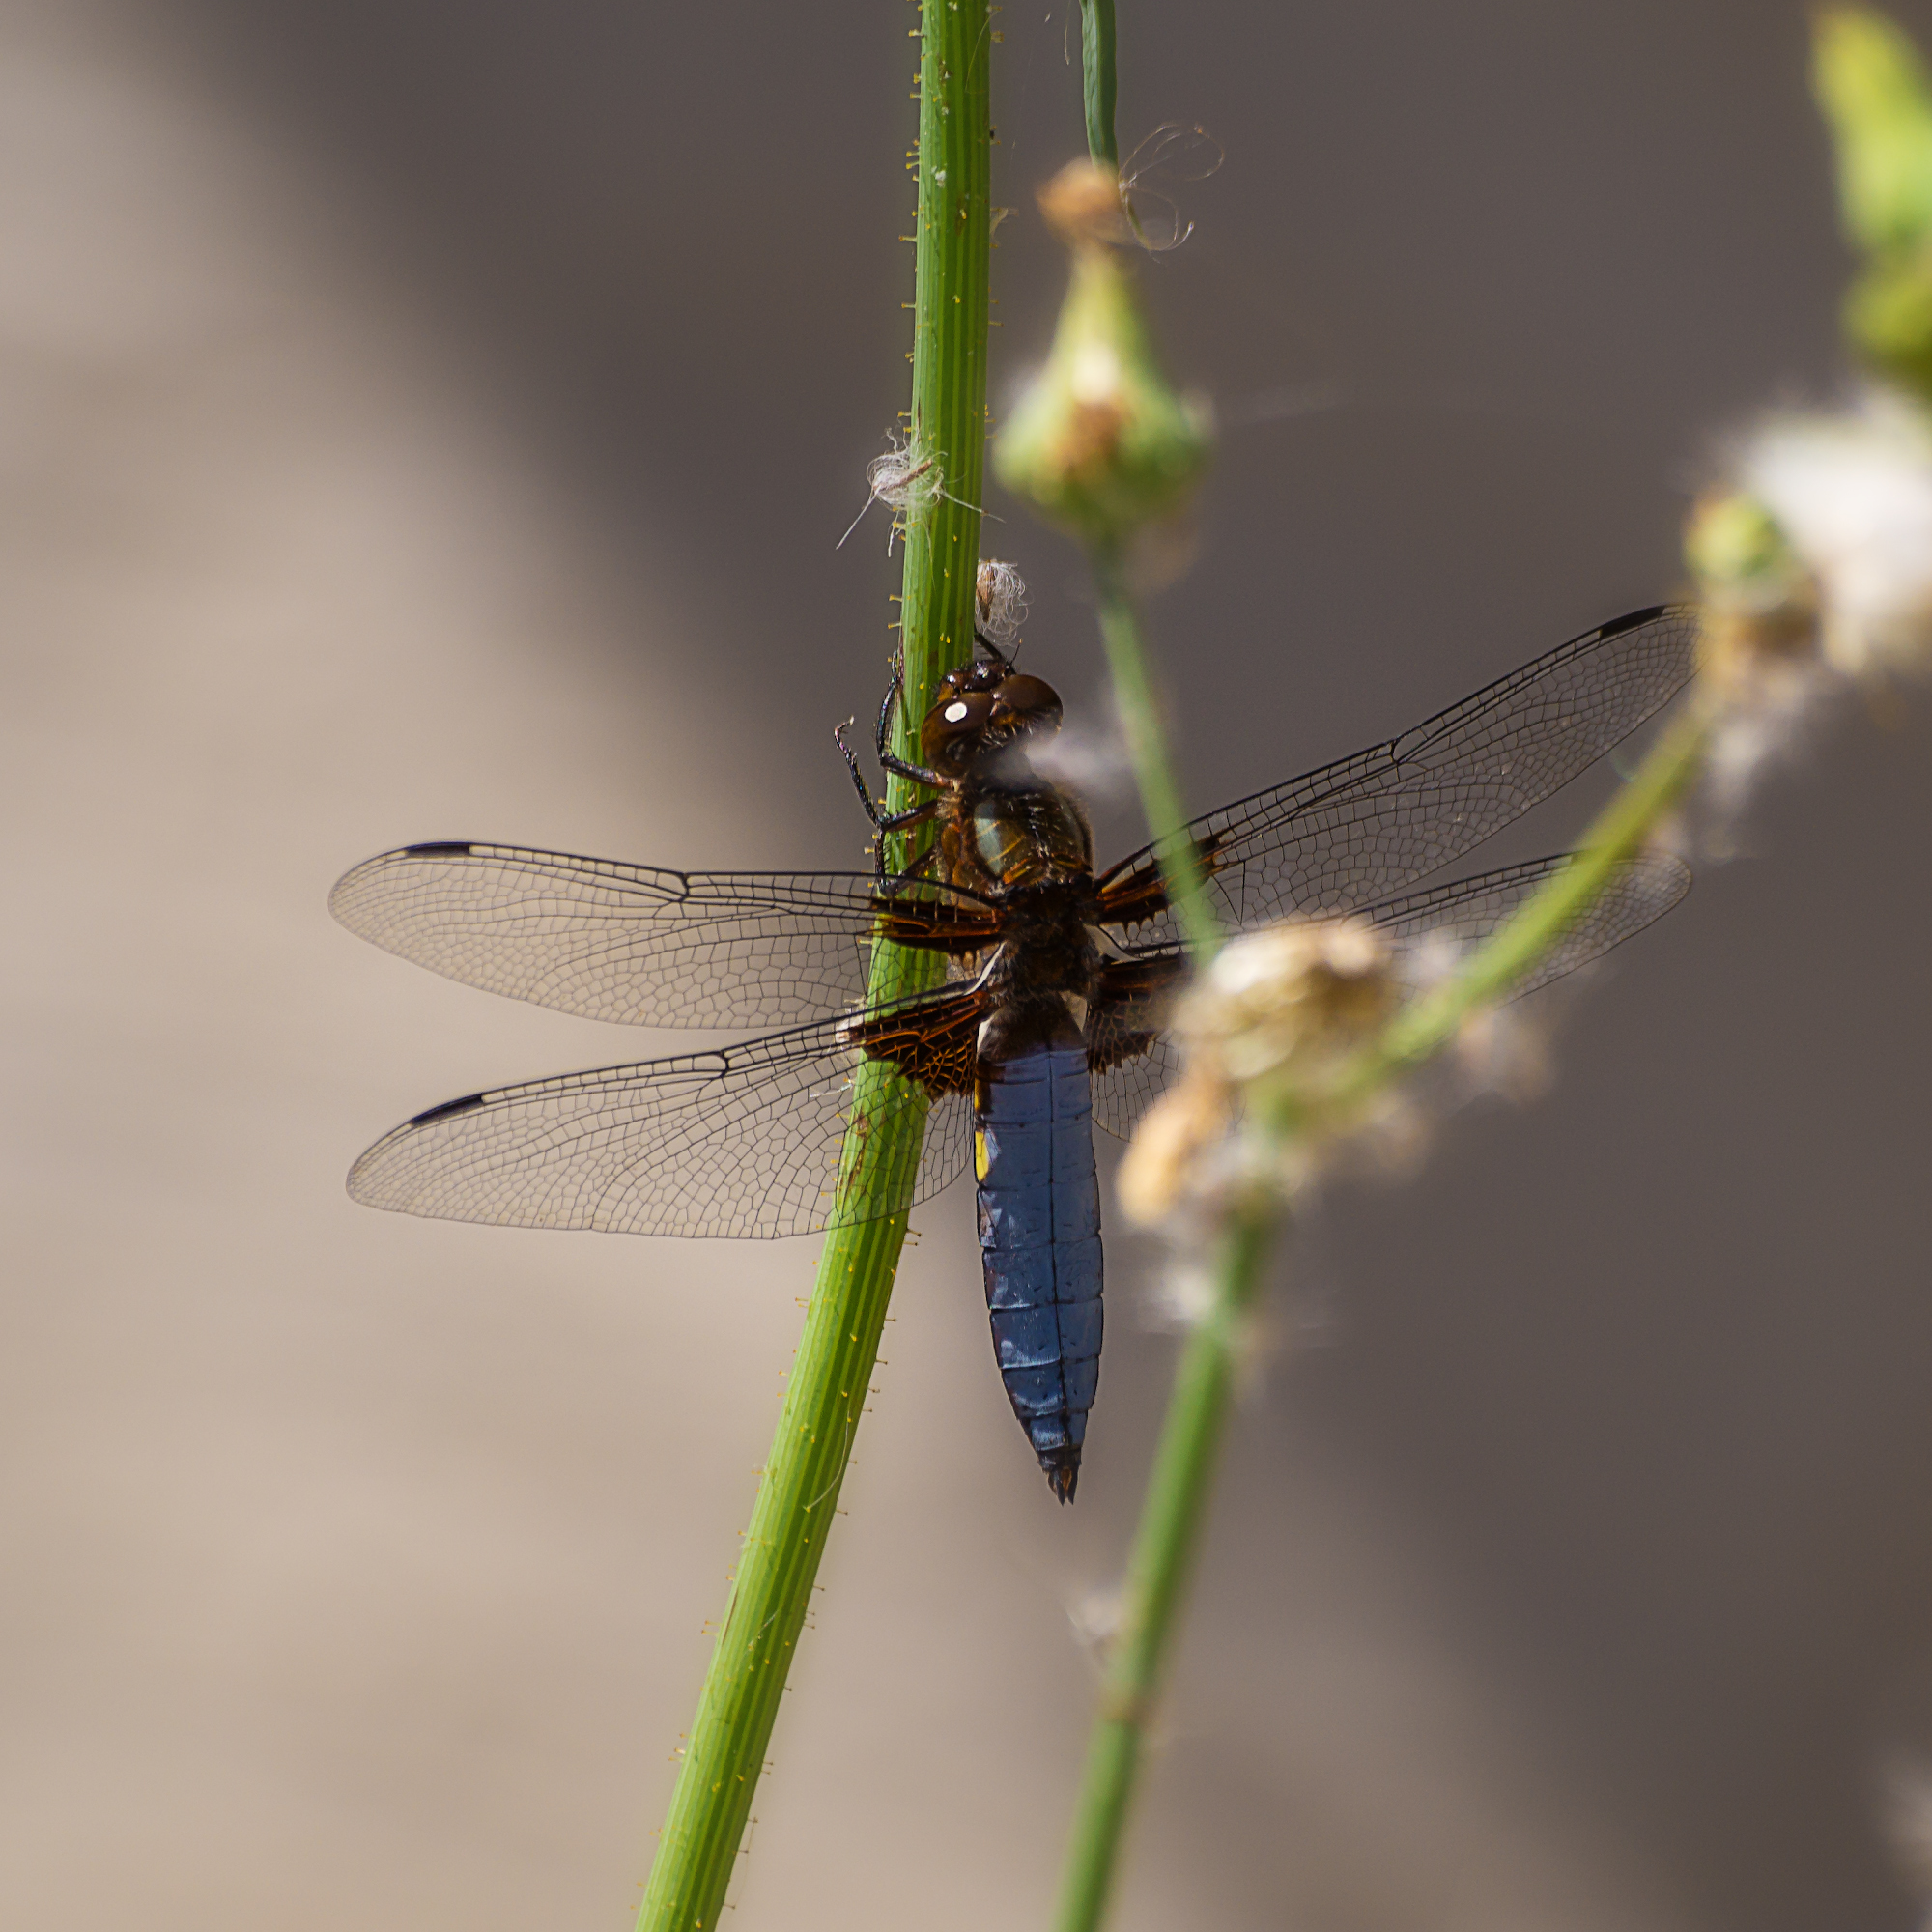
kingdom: Animalia
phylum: Arthropoda
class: Insecta
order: Odonata
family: Libellulidae
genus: Libellula
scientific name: Libellula depressa
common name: Broad-bodied chaser
